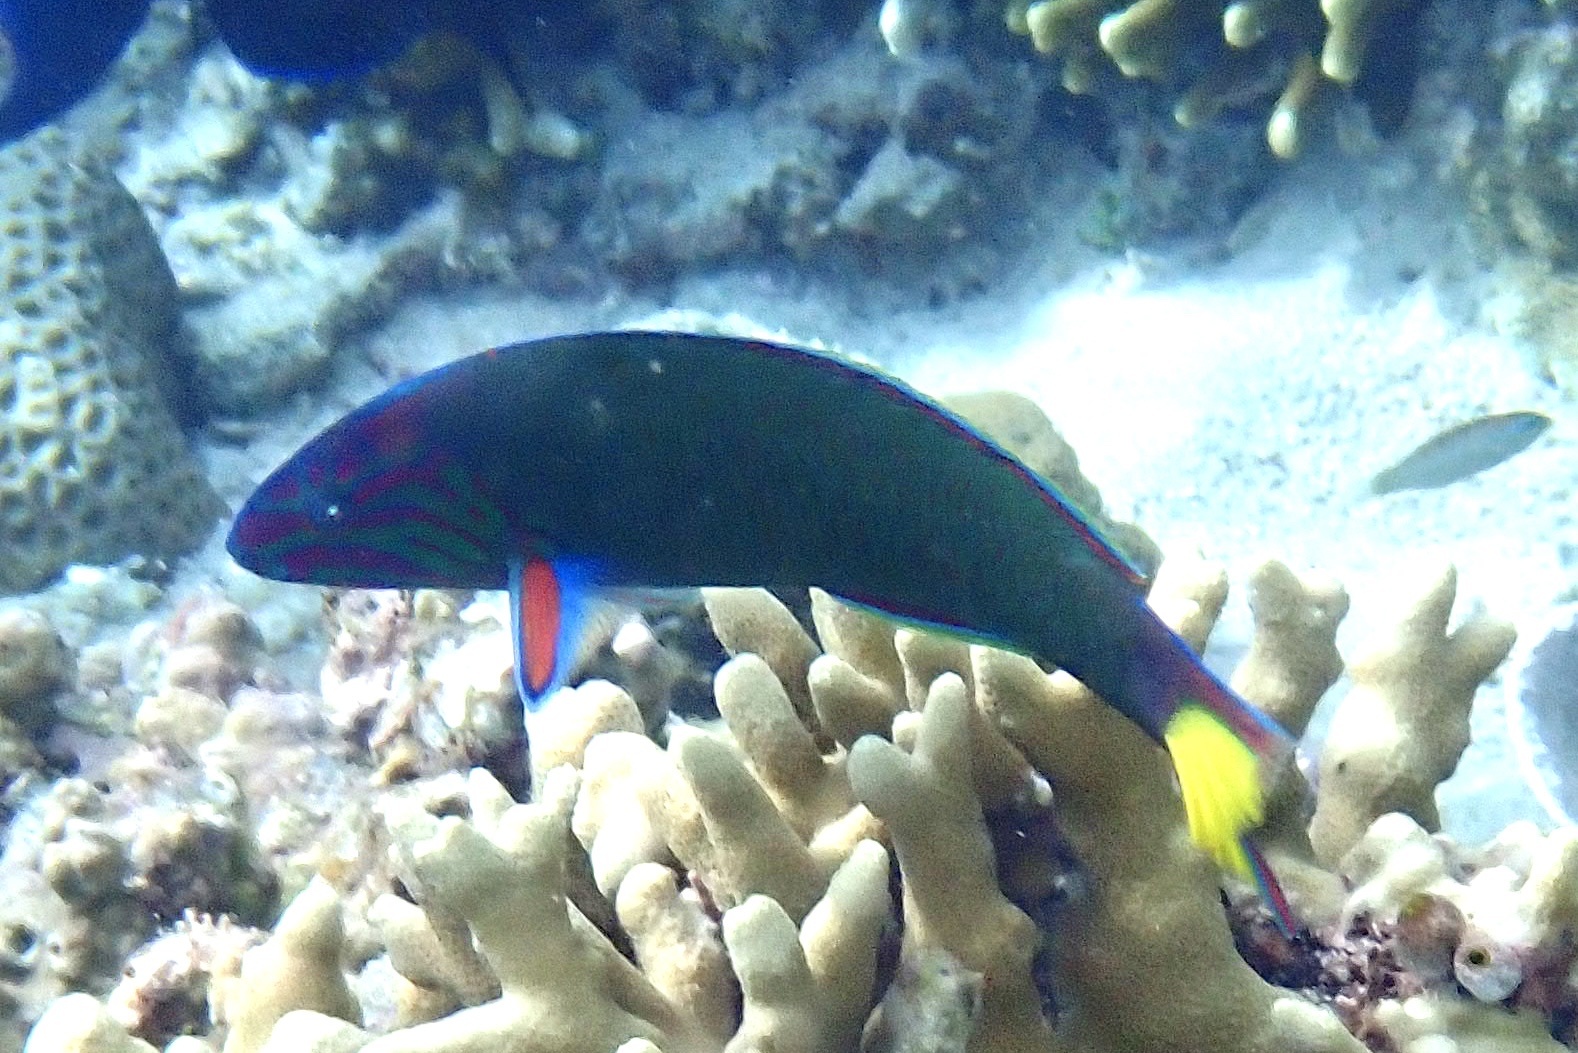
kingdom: Animalia
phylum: Chordata
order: Perciformes
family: Labridae
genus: Thalassoma
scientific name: Thalassoma lunare
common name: Blue wrasse
